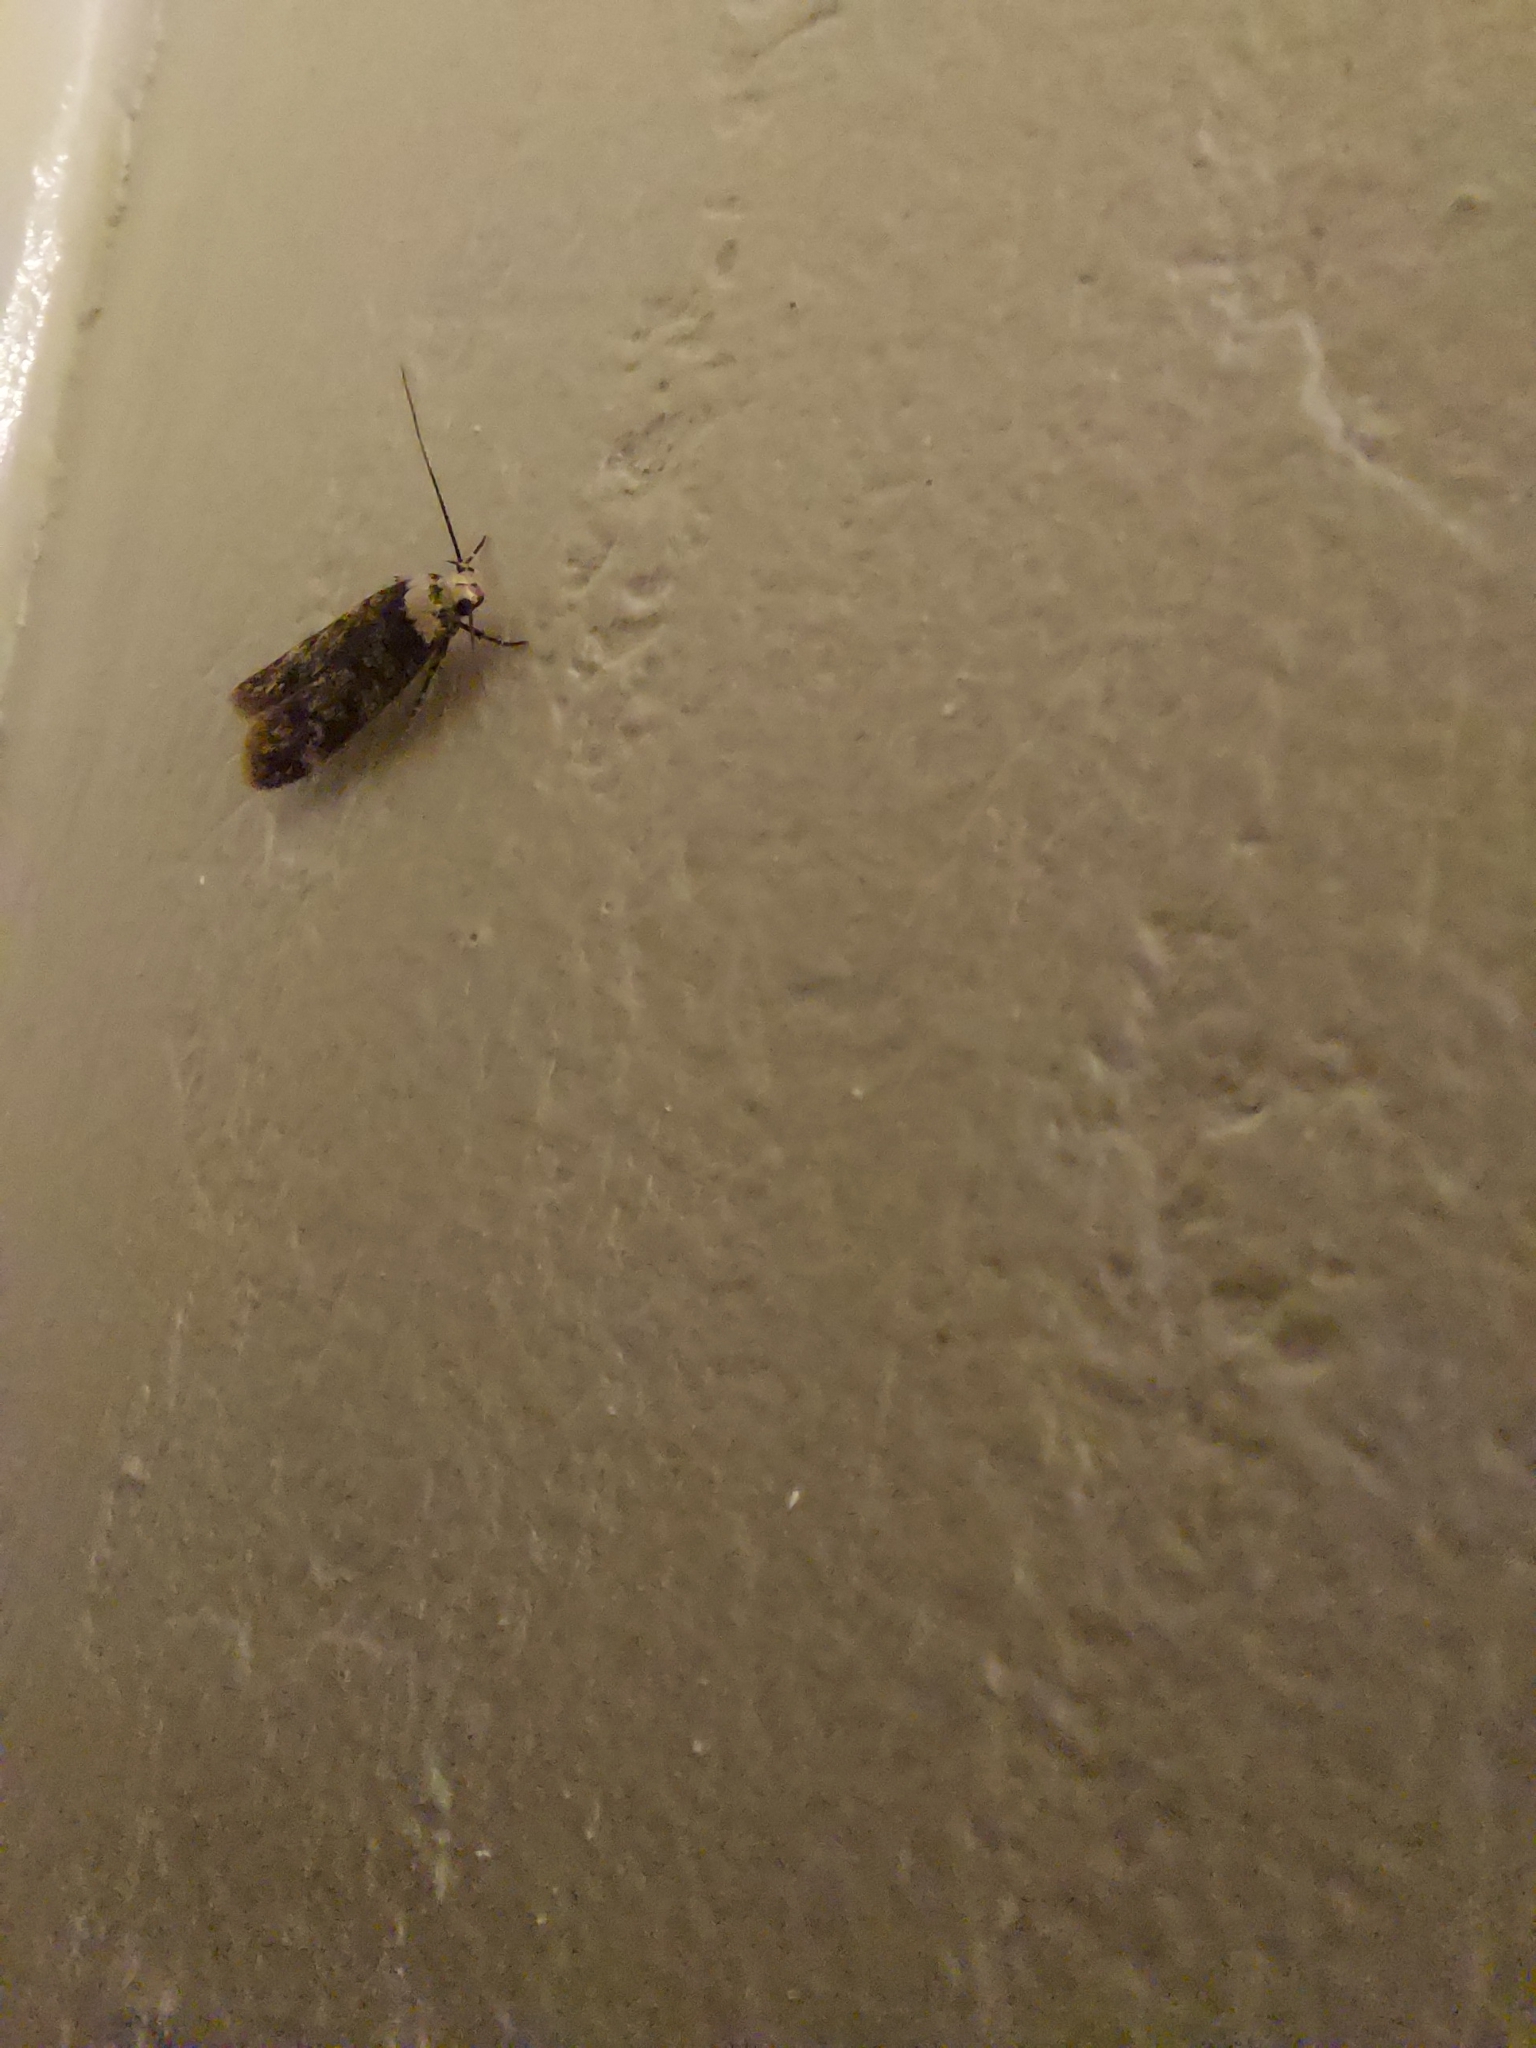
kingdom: Animalia
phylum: Arthropoda
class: Insecta
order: Lepidoptera
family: Oecophoridae
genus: Endrosis
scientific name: Endrosis sarcitrella
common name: White-shouldered house moth
